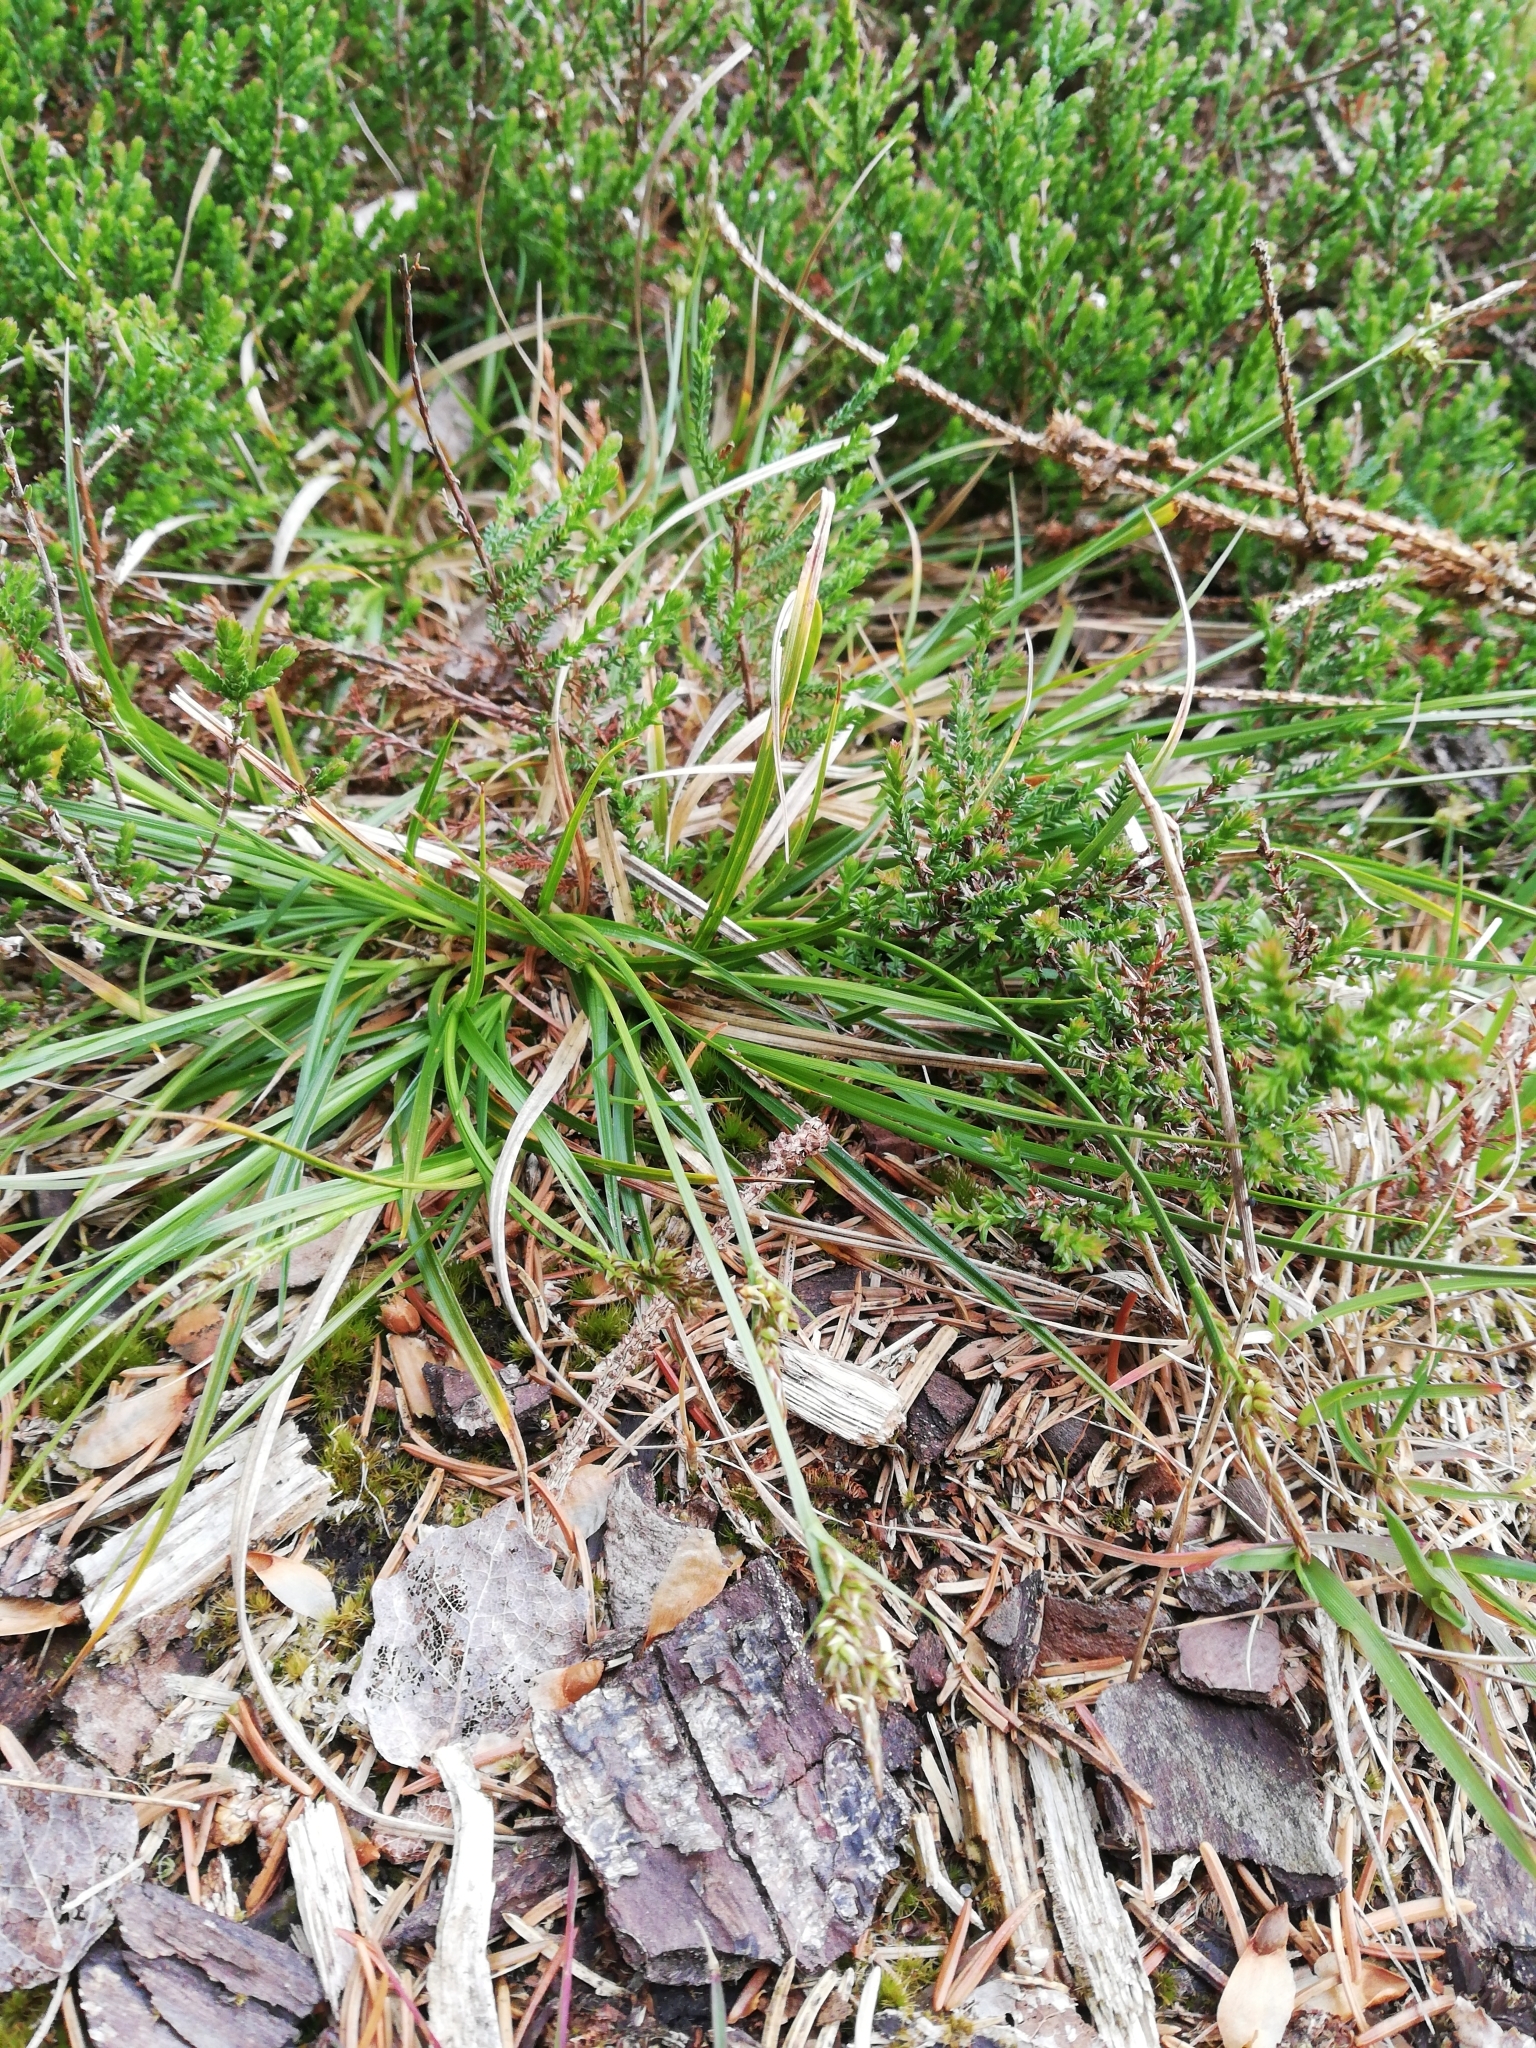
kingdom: Plantae
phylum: Tracheophyta
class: Liliopsida
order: Poales
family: Cyperaceae
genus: Carex
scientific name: Carex pilulifera
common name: Pill sedge
